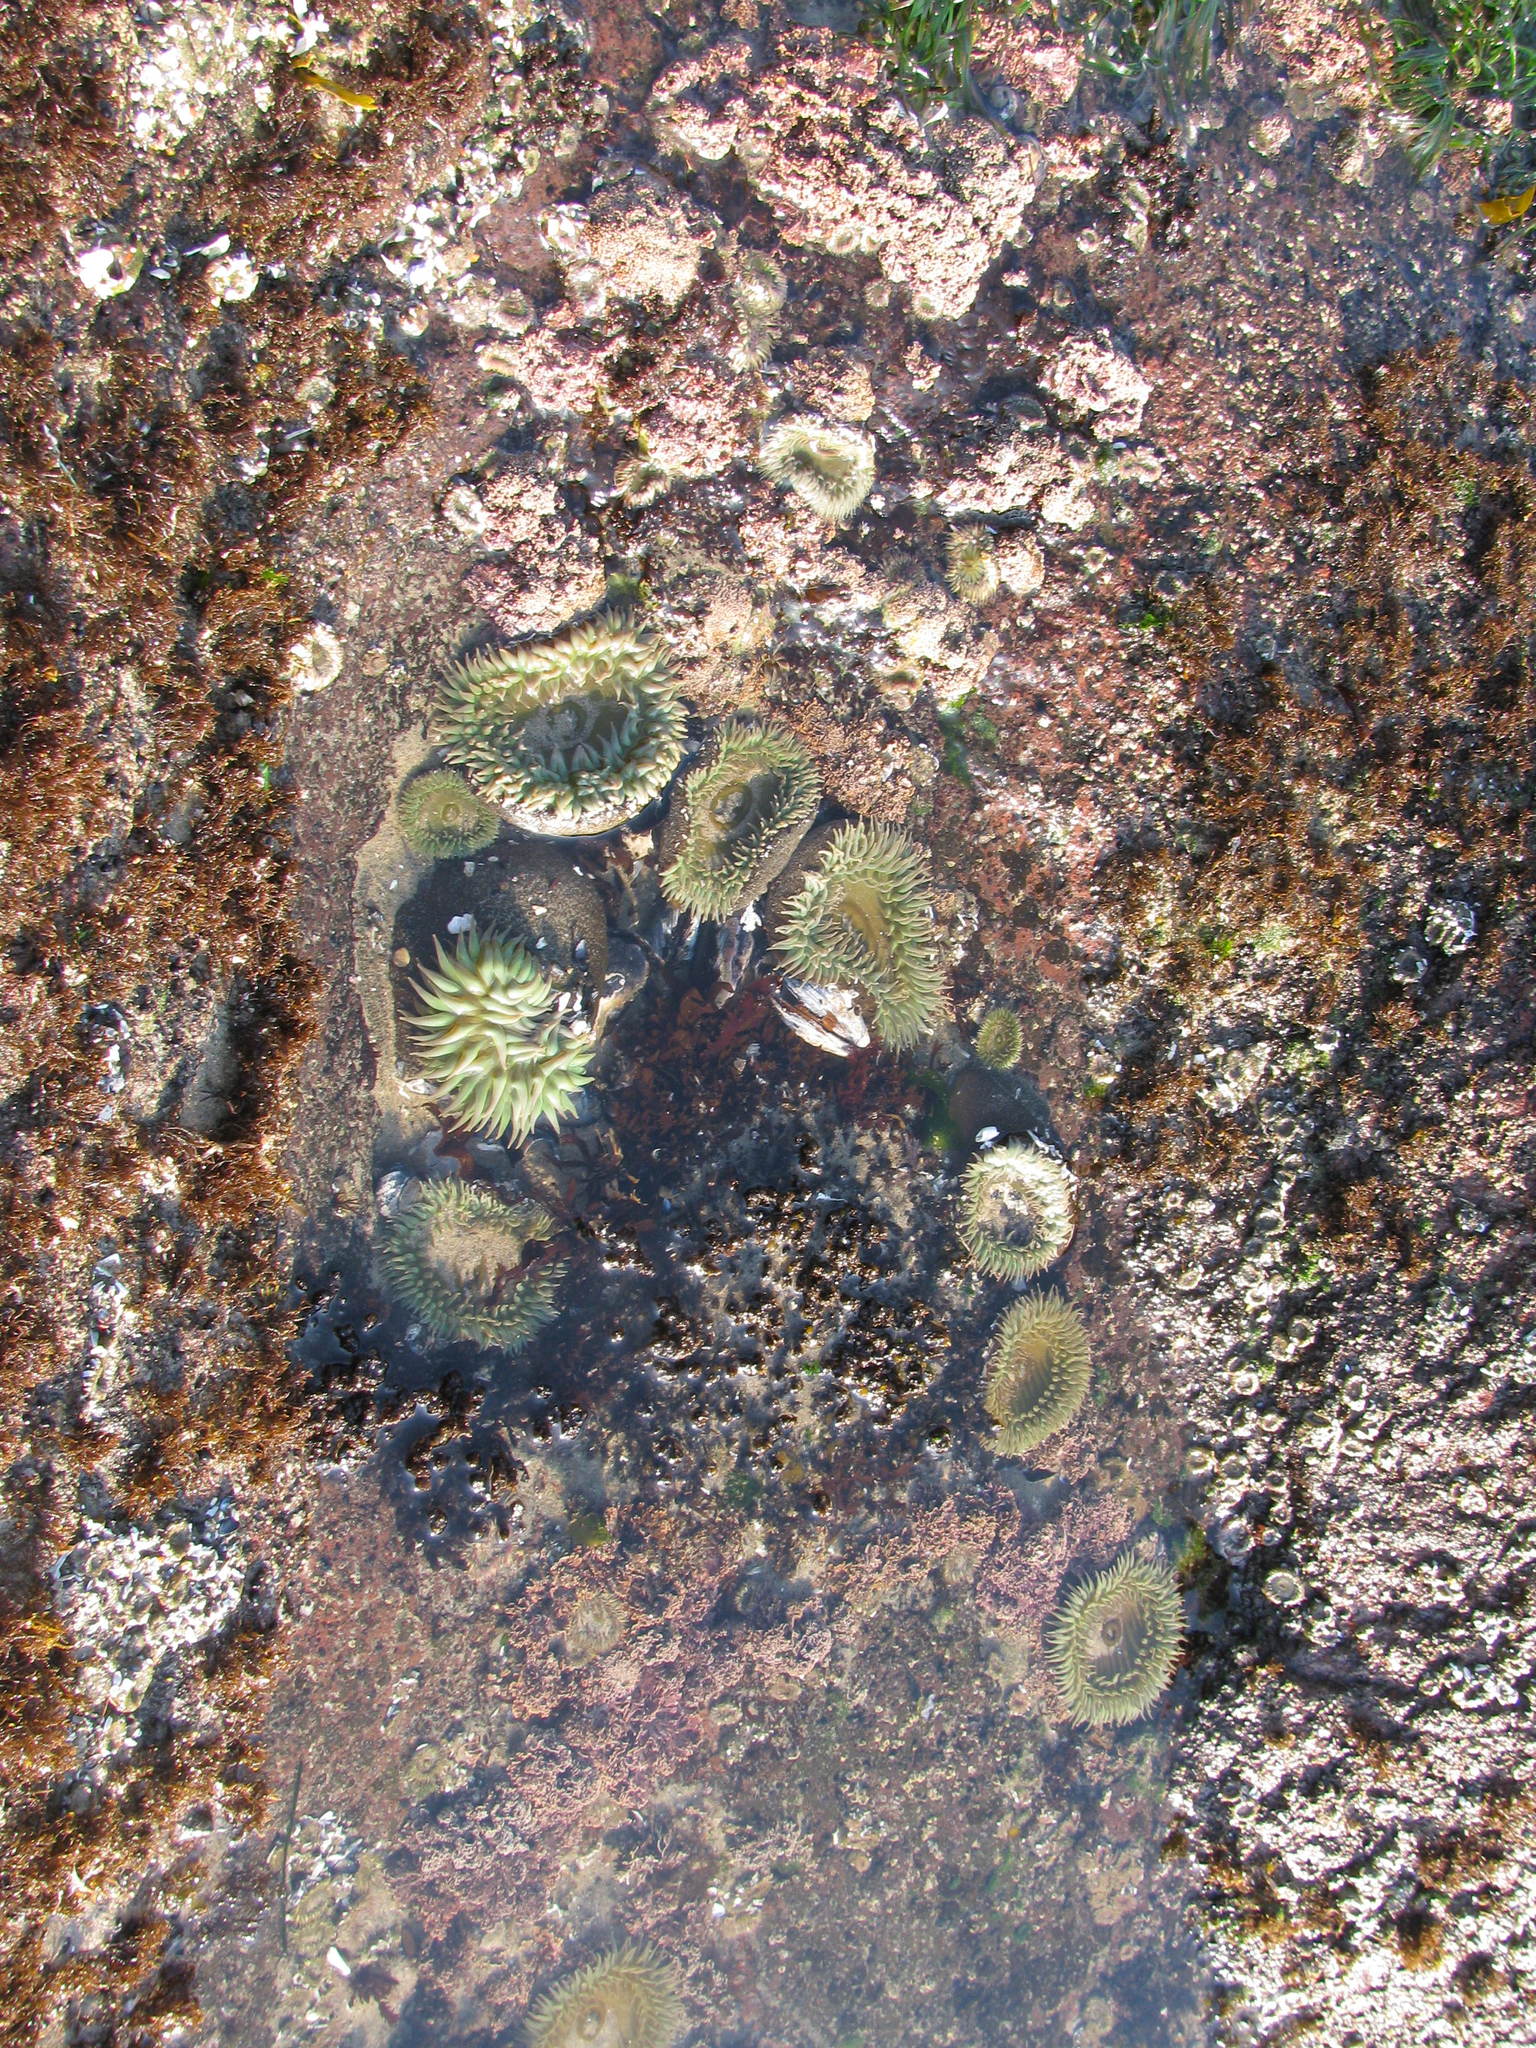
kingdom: Animalia
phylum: Cnidaria
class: Anthozoa
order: Actiniaria
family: Actiniidae
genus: Anthopleura
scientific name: Anthopleura xanthogrammica
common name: Giant green anemone
